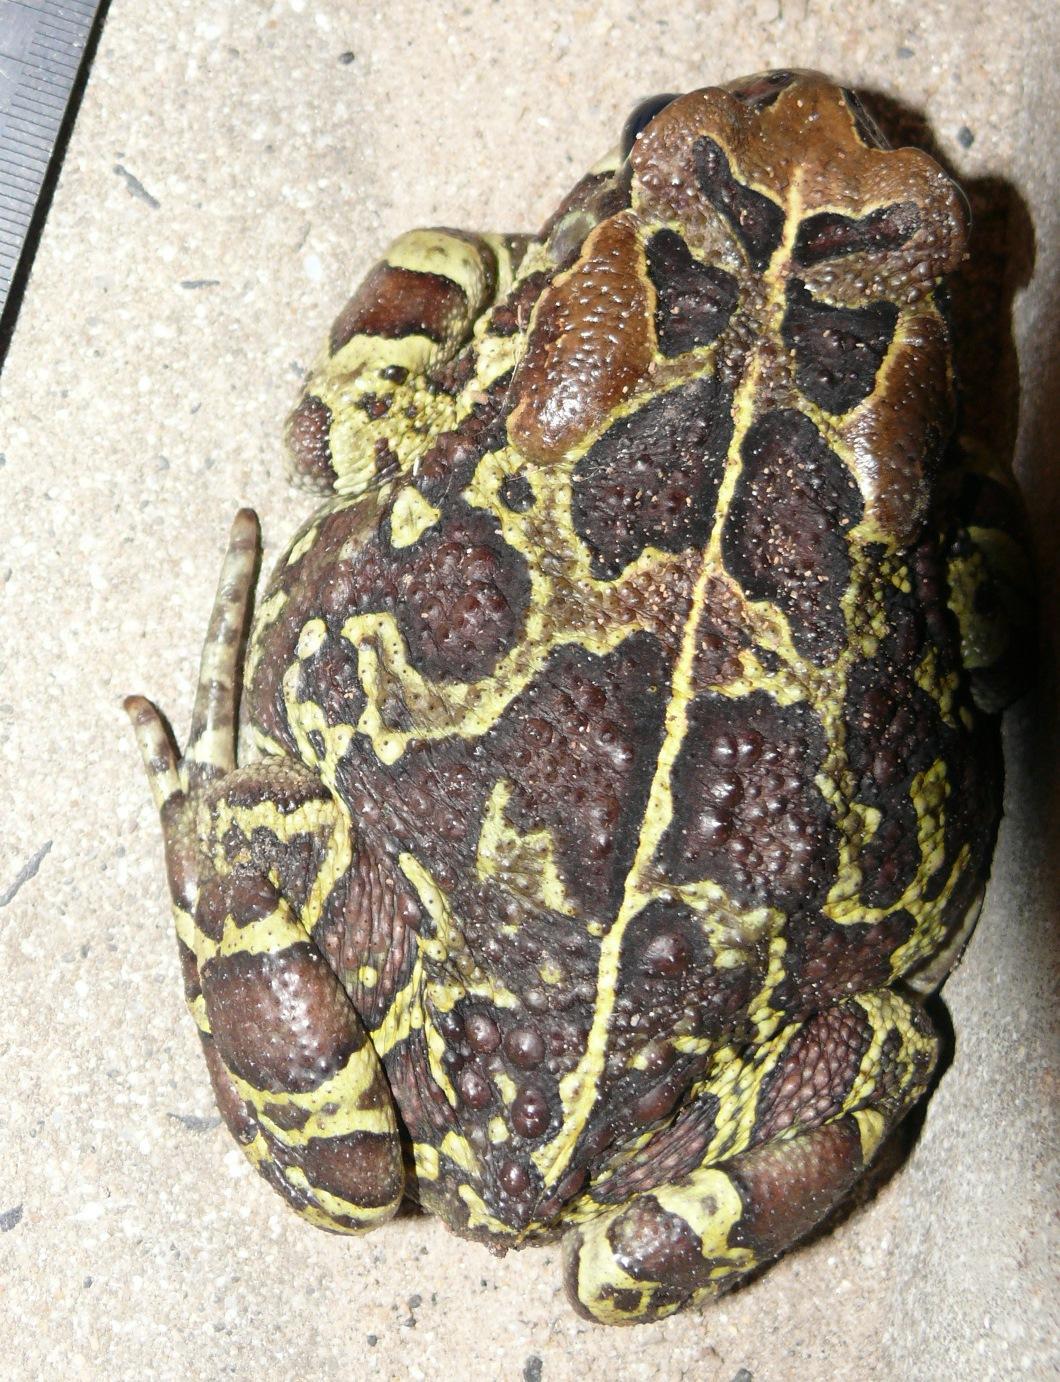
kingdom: Animalia
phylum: Chordata
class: Amphibia
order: Anura
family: Bufonidae
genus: Sclerophrys
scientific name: Sclerophrys pantherina
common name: Panther toad
